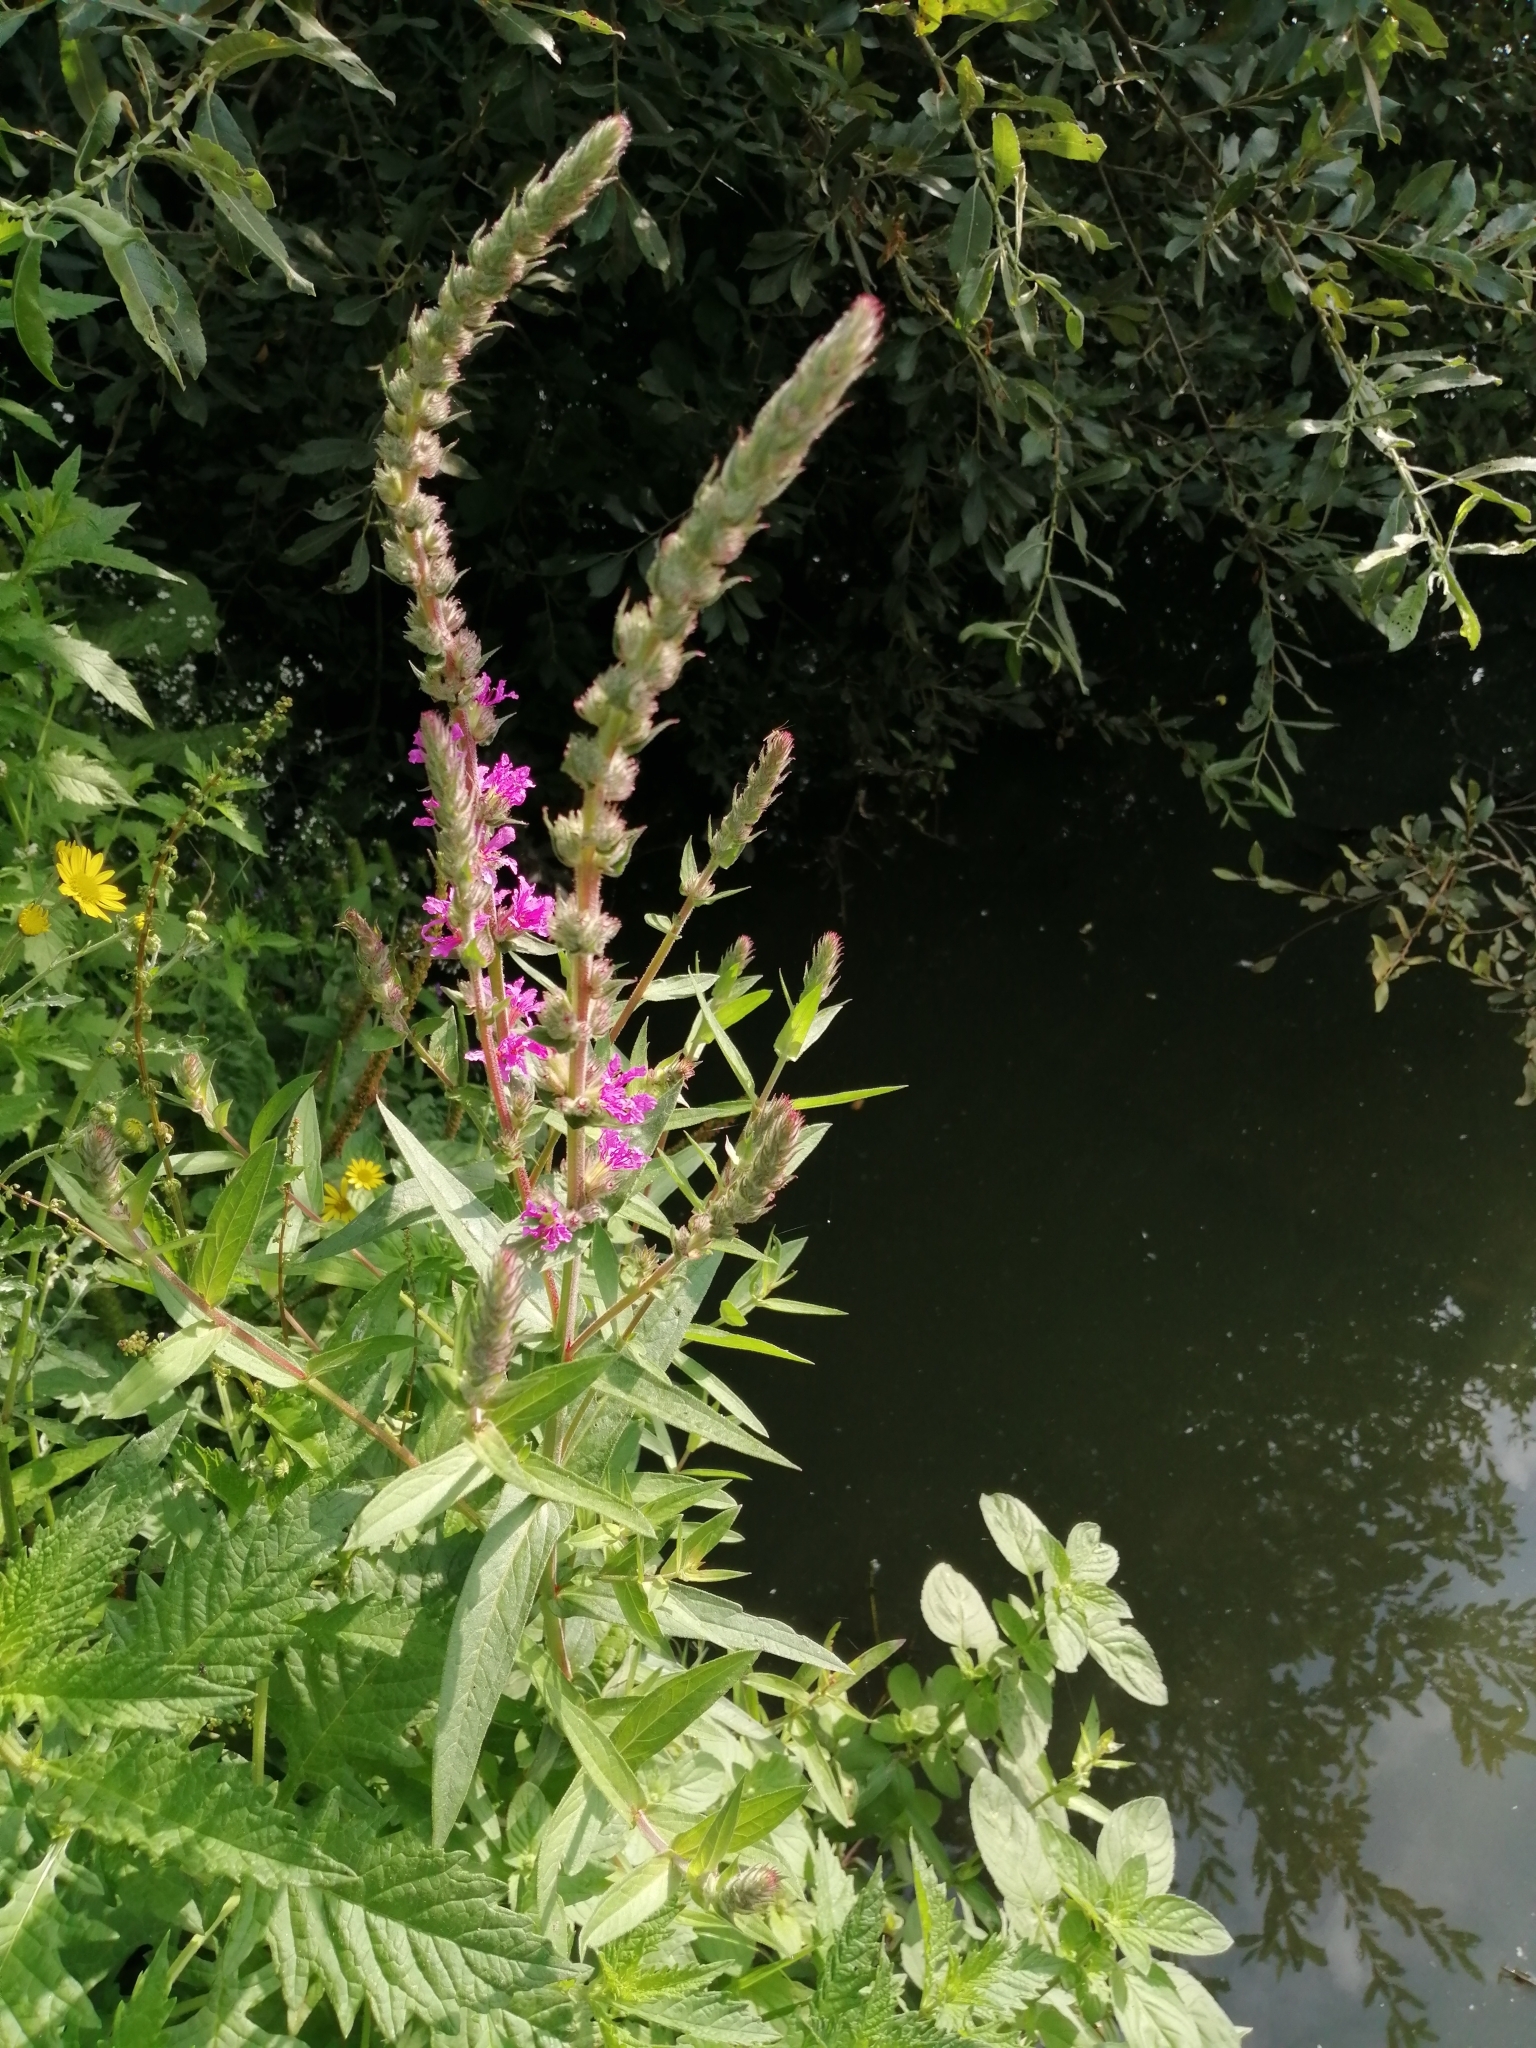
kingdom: Plantae
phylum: Tracheophyta
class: Magnoliopsida
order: Myrtales
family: Lythraceae
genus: Lythrum
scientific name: Lythrum salicaria
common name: Purple loosestrife
